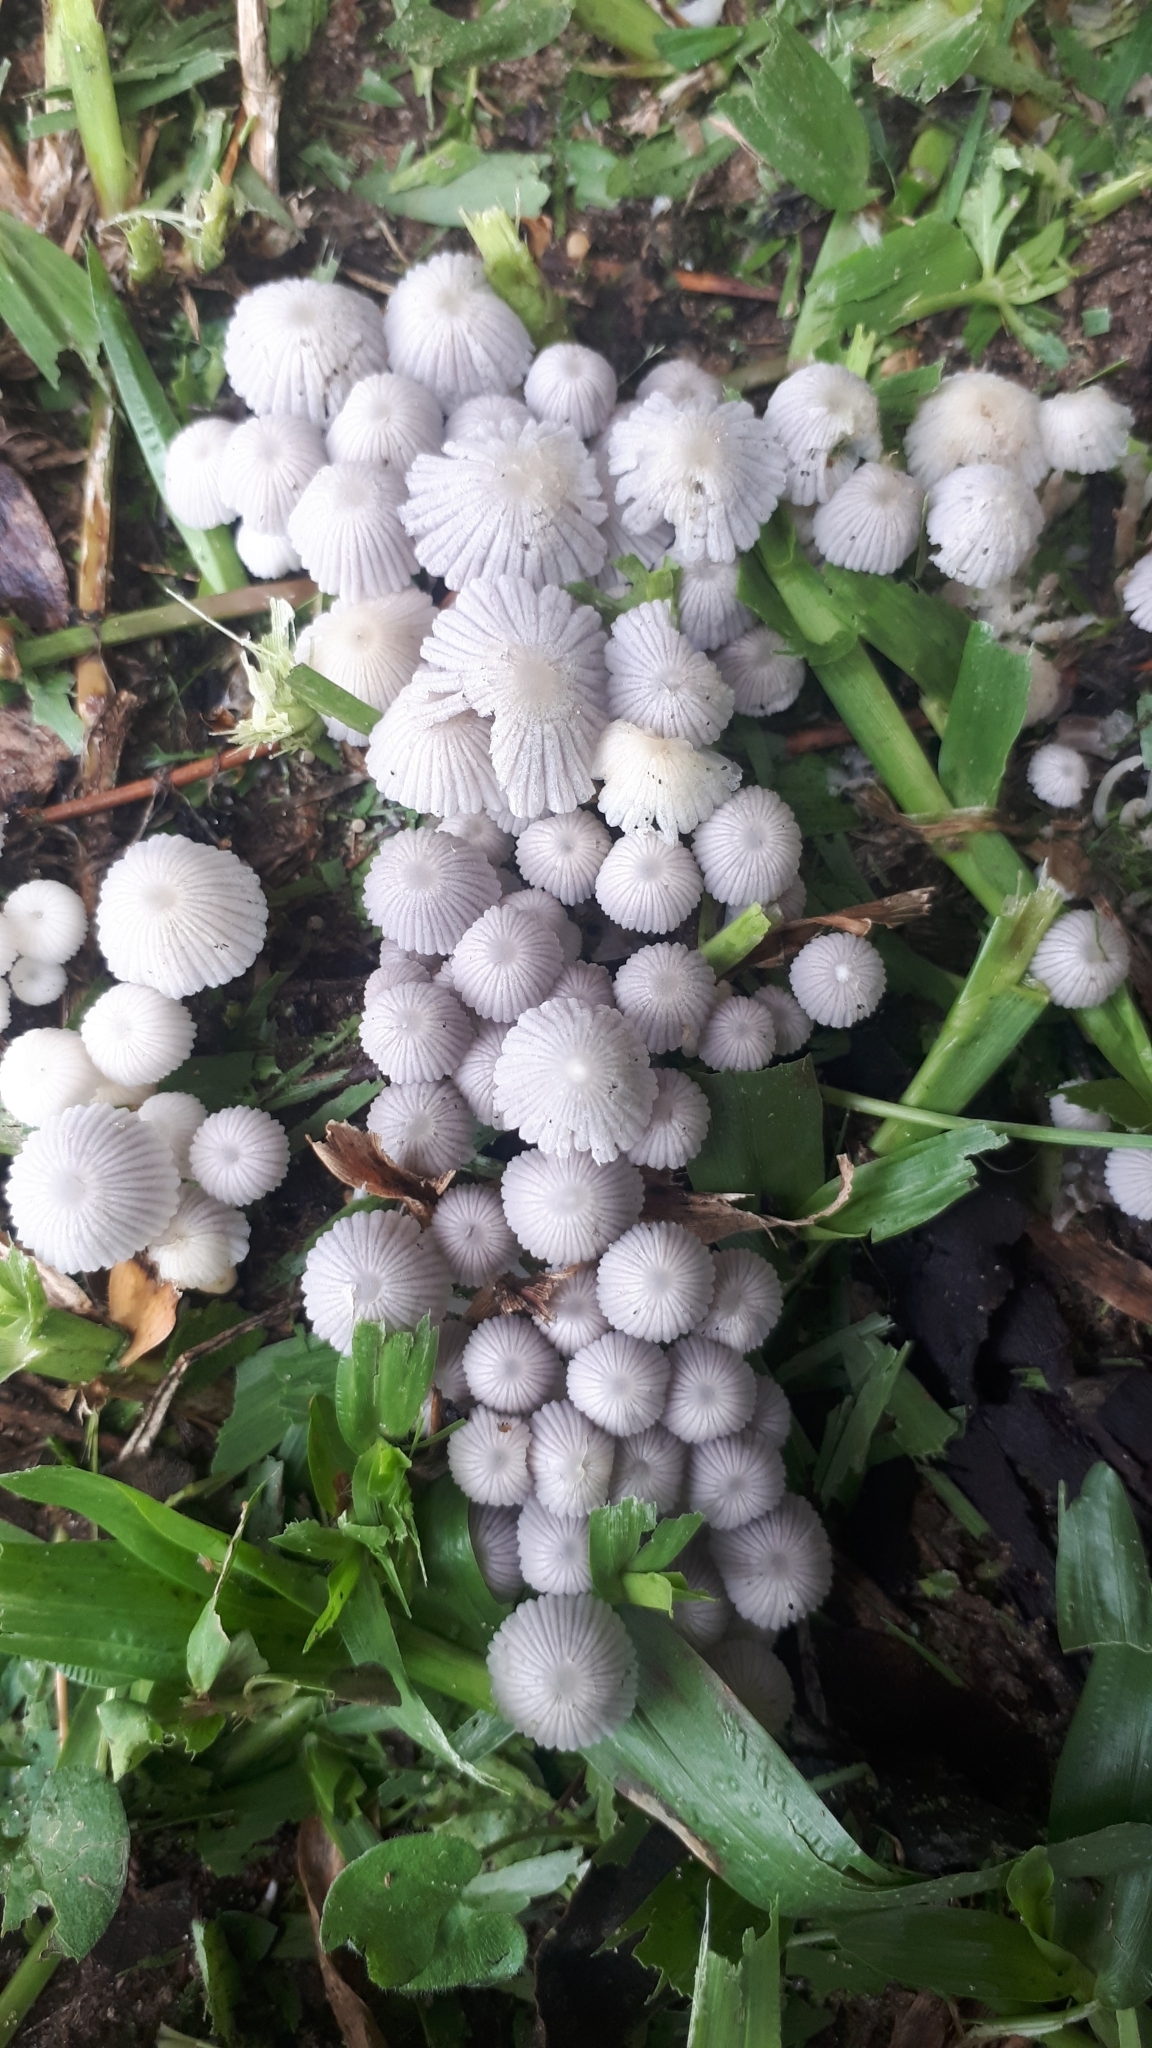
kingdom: Fungi
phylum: Basidiomycota
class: Agaricomycetes
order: Agaricales
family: Psathyrellaceae
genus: Coprinellus
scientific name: Coprinellus disseminatus
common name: Fairies' bonnets
